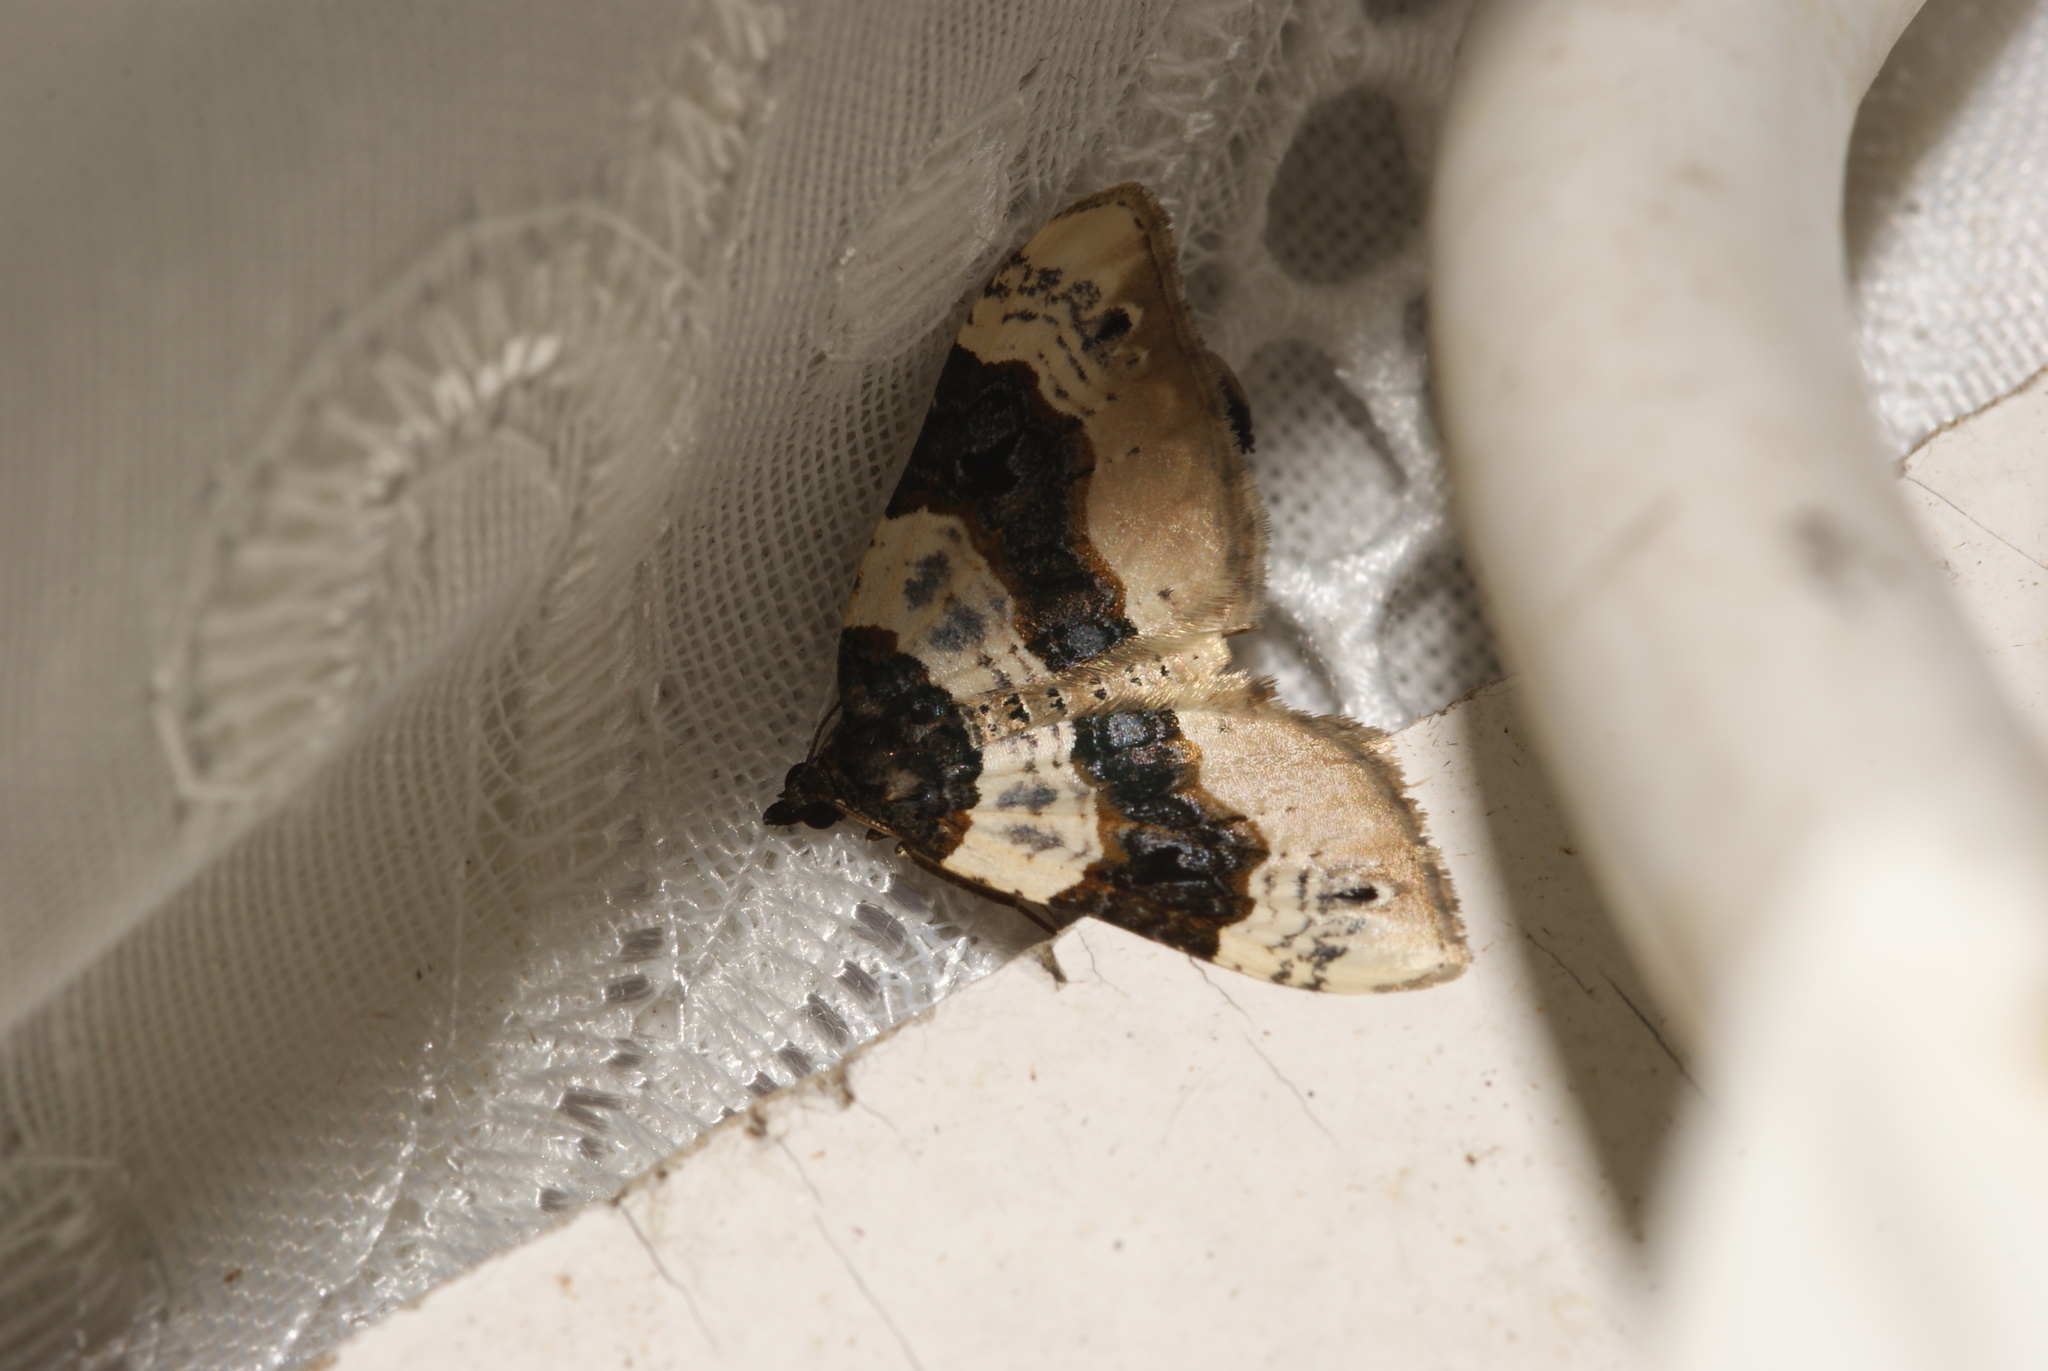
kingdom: Animalia
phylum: Arthropoda
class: Insecta
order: Lepidoptera
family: Geometridae
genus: Cosmorhoe
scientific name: Cosmorhoe ocellata
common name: Purple bar
